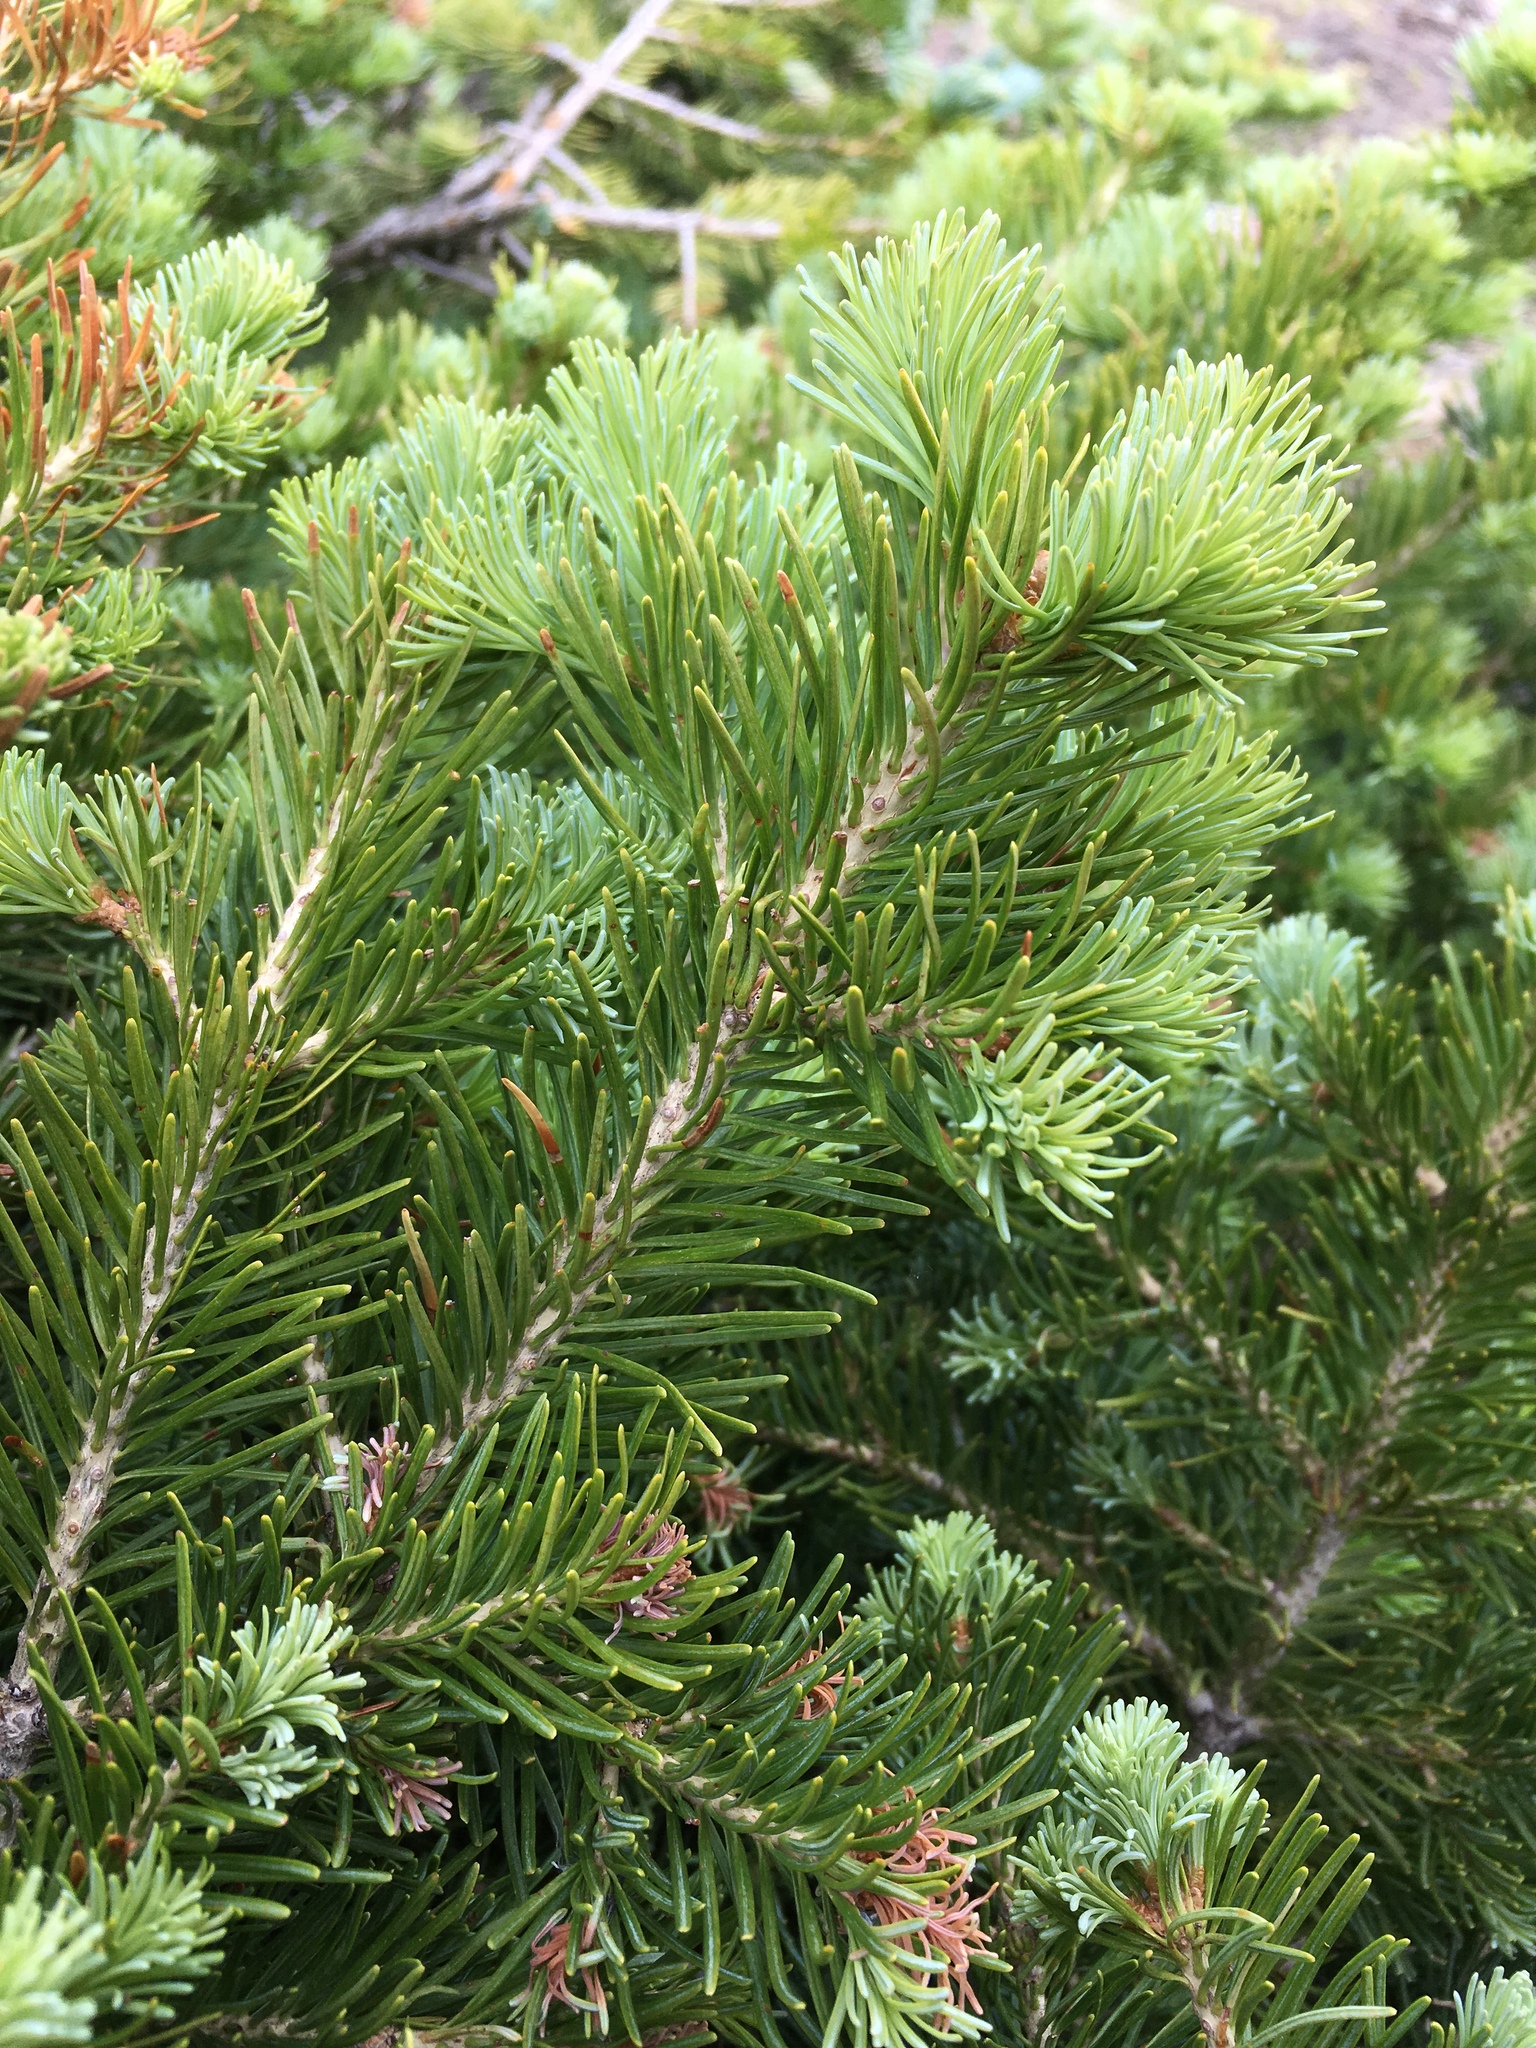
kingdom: Plantae
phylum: Tracheophyta
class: Pinopsida
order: Pinales
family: Pinaceae
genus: Picea
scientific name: Picea engelmannii
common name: Engelmann spruce
